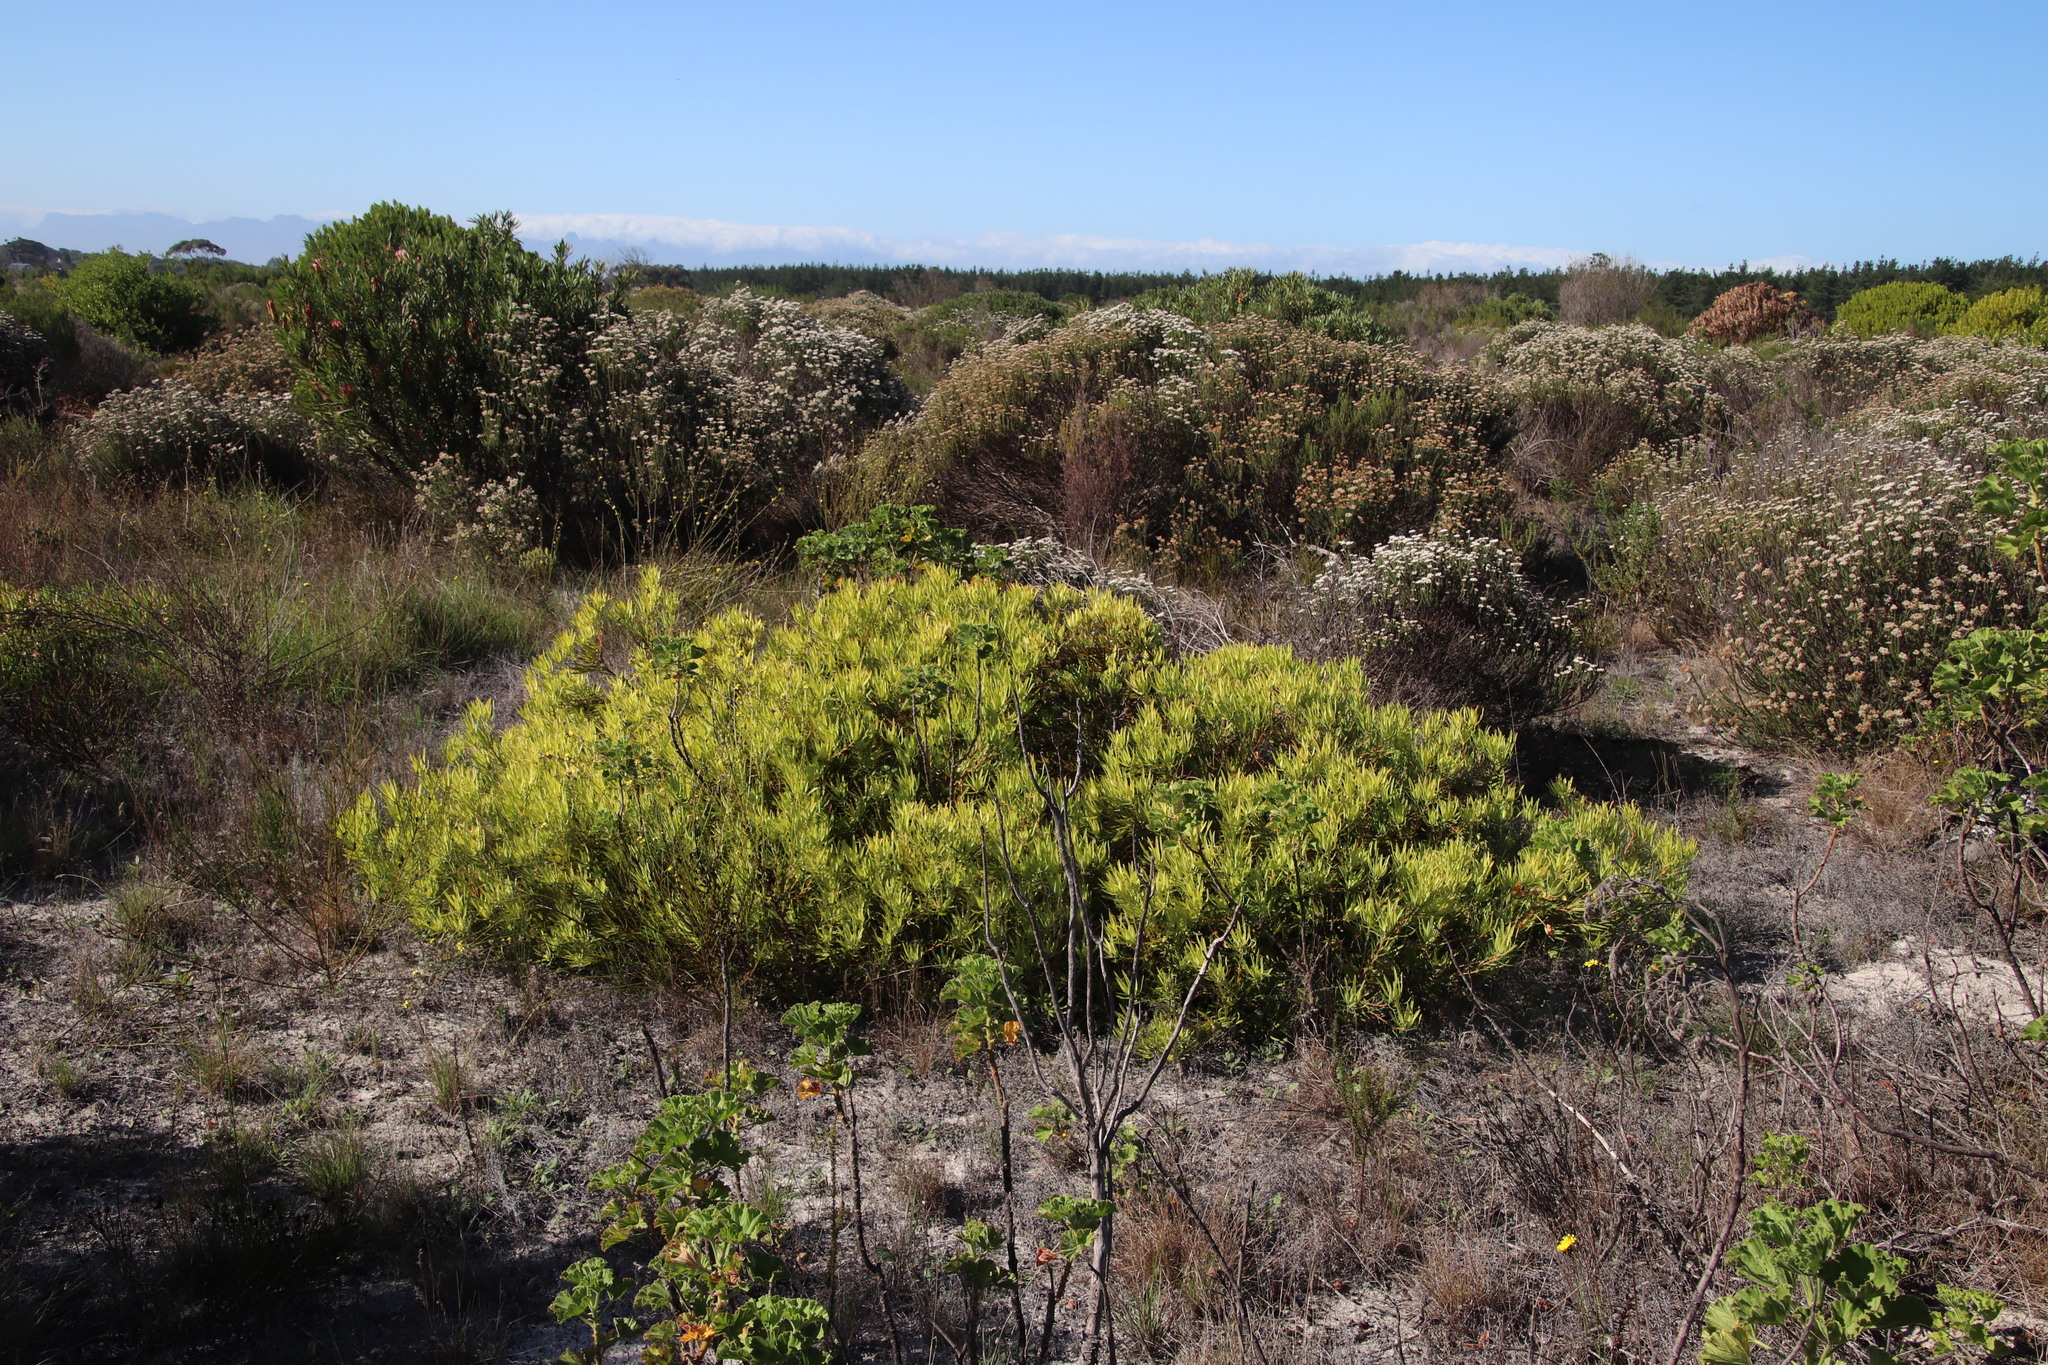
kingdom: Plantae
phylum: Tracheophyta
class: Magnoliopsida
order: Proteales
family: Proteaceae
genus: Leucadendron
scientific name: Leucadendron salignum
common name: Common sunshine conebush
